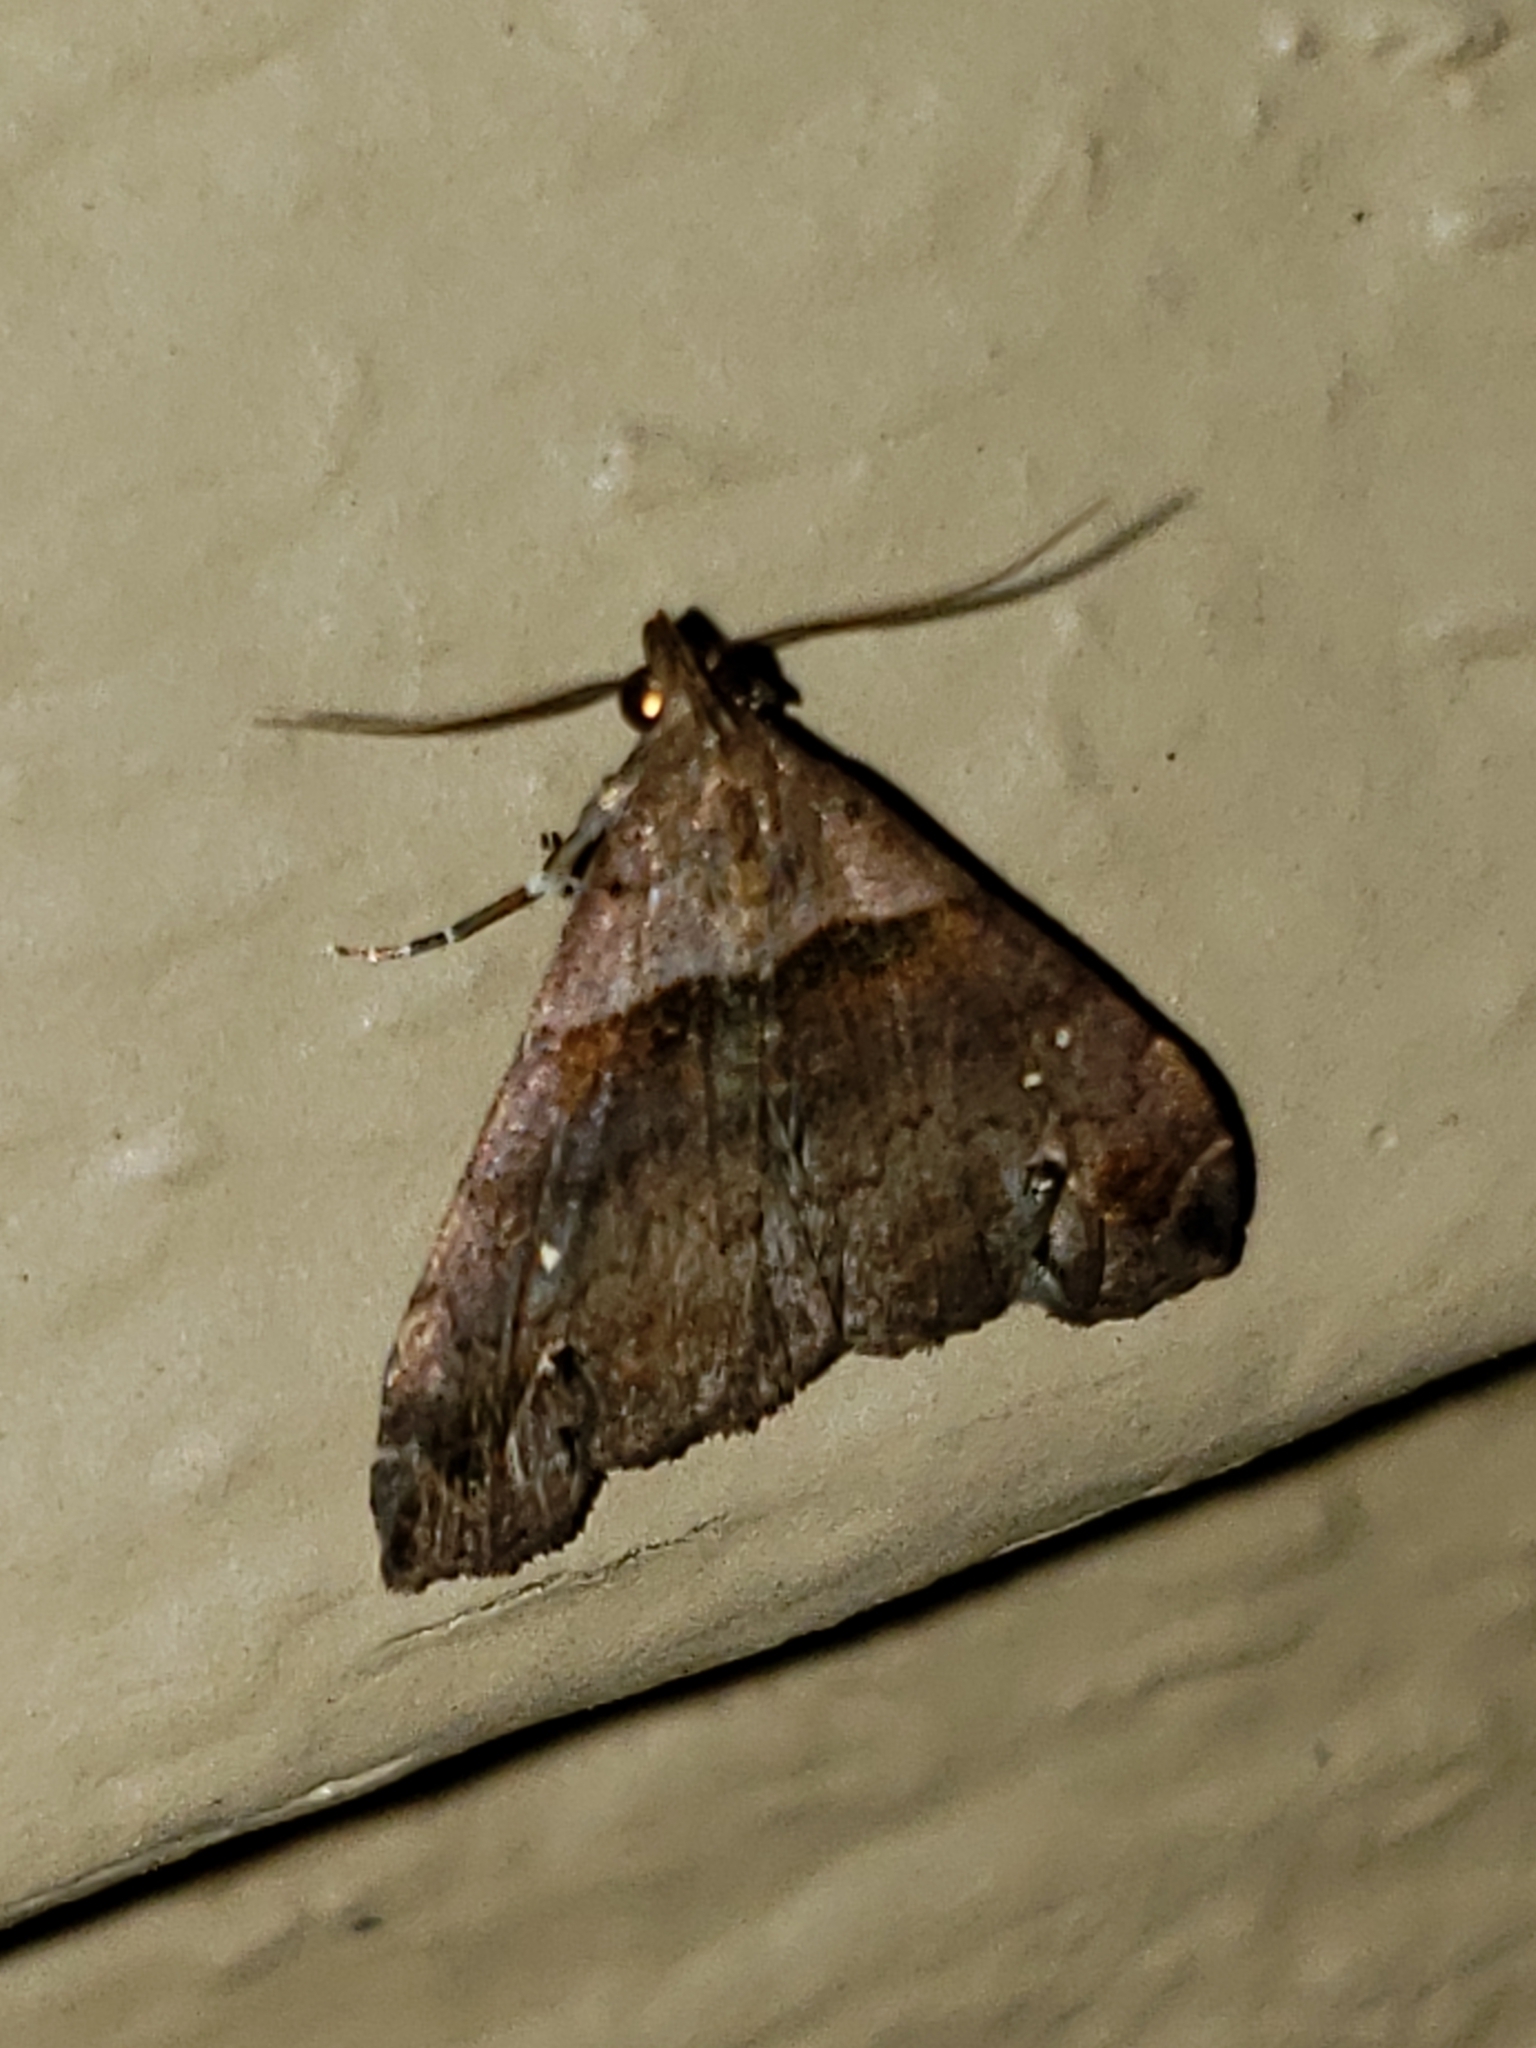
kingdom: Animalia
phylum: Arthropoda
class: Insecta
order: Lepidoptera
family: Erebidae
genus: Lascoria
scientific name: Lascoria ambigualis
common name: Ambiguous moth
